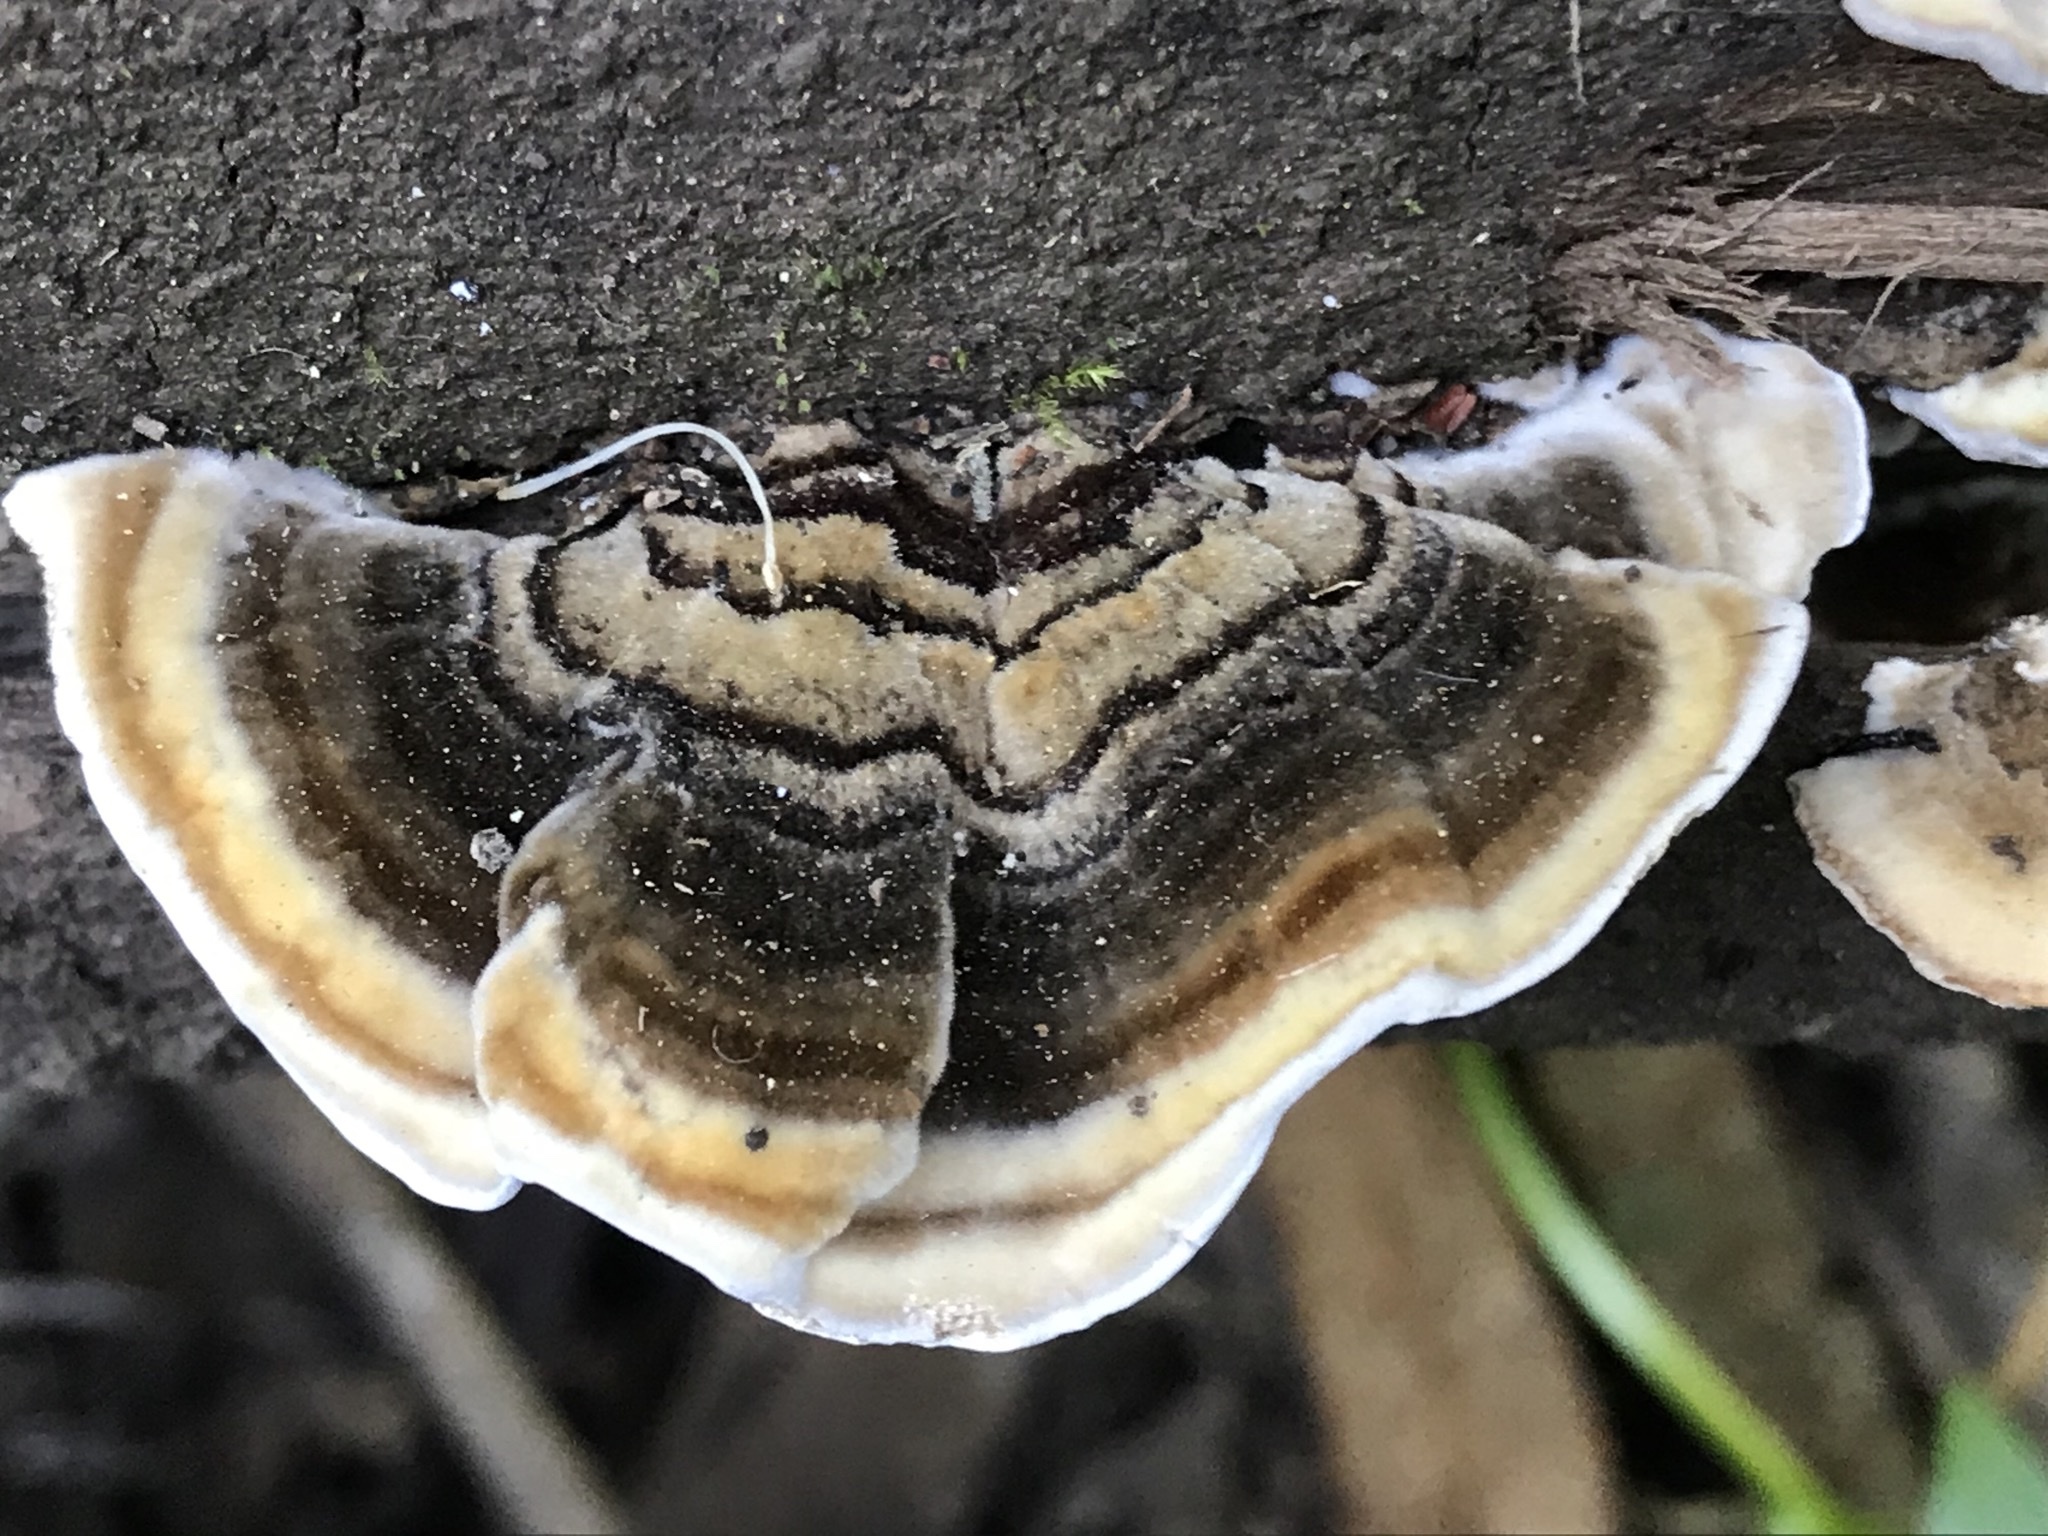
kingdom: Fungi
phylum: Basidiomycota
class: Agaricomycetes
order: Polyporales
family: Polyporaceae
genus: Trametes
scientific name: Trametes versicolor
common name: Turkeytail
